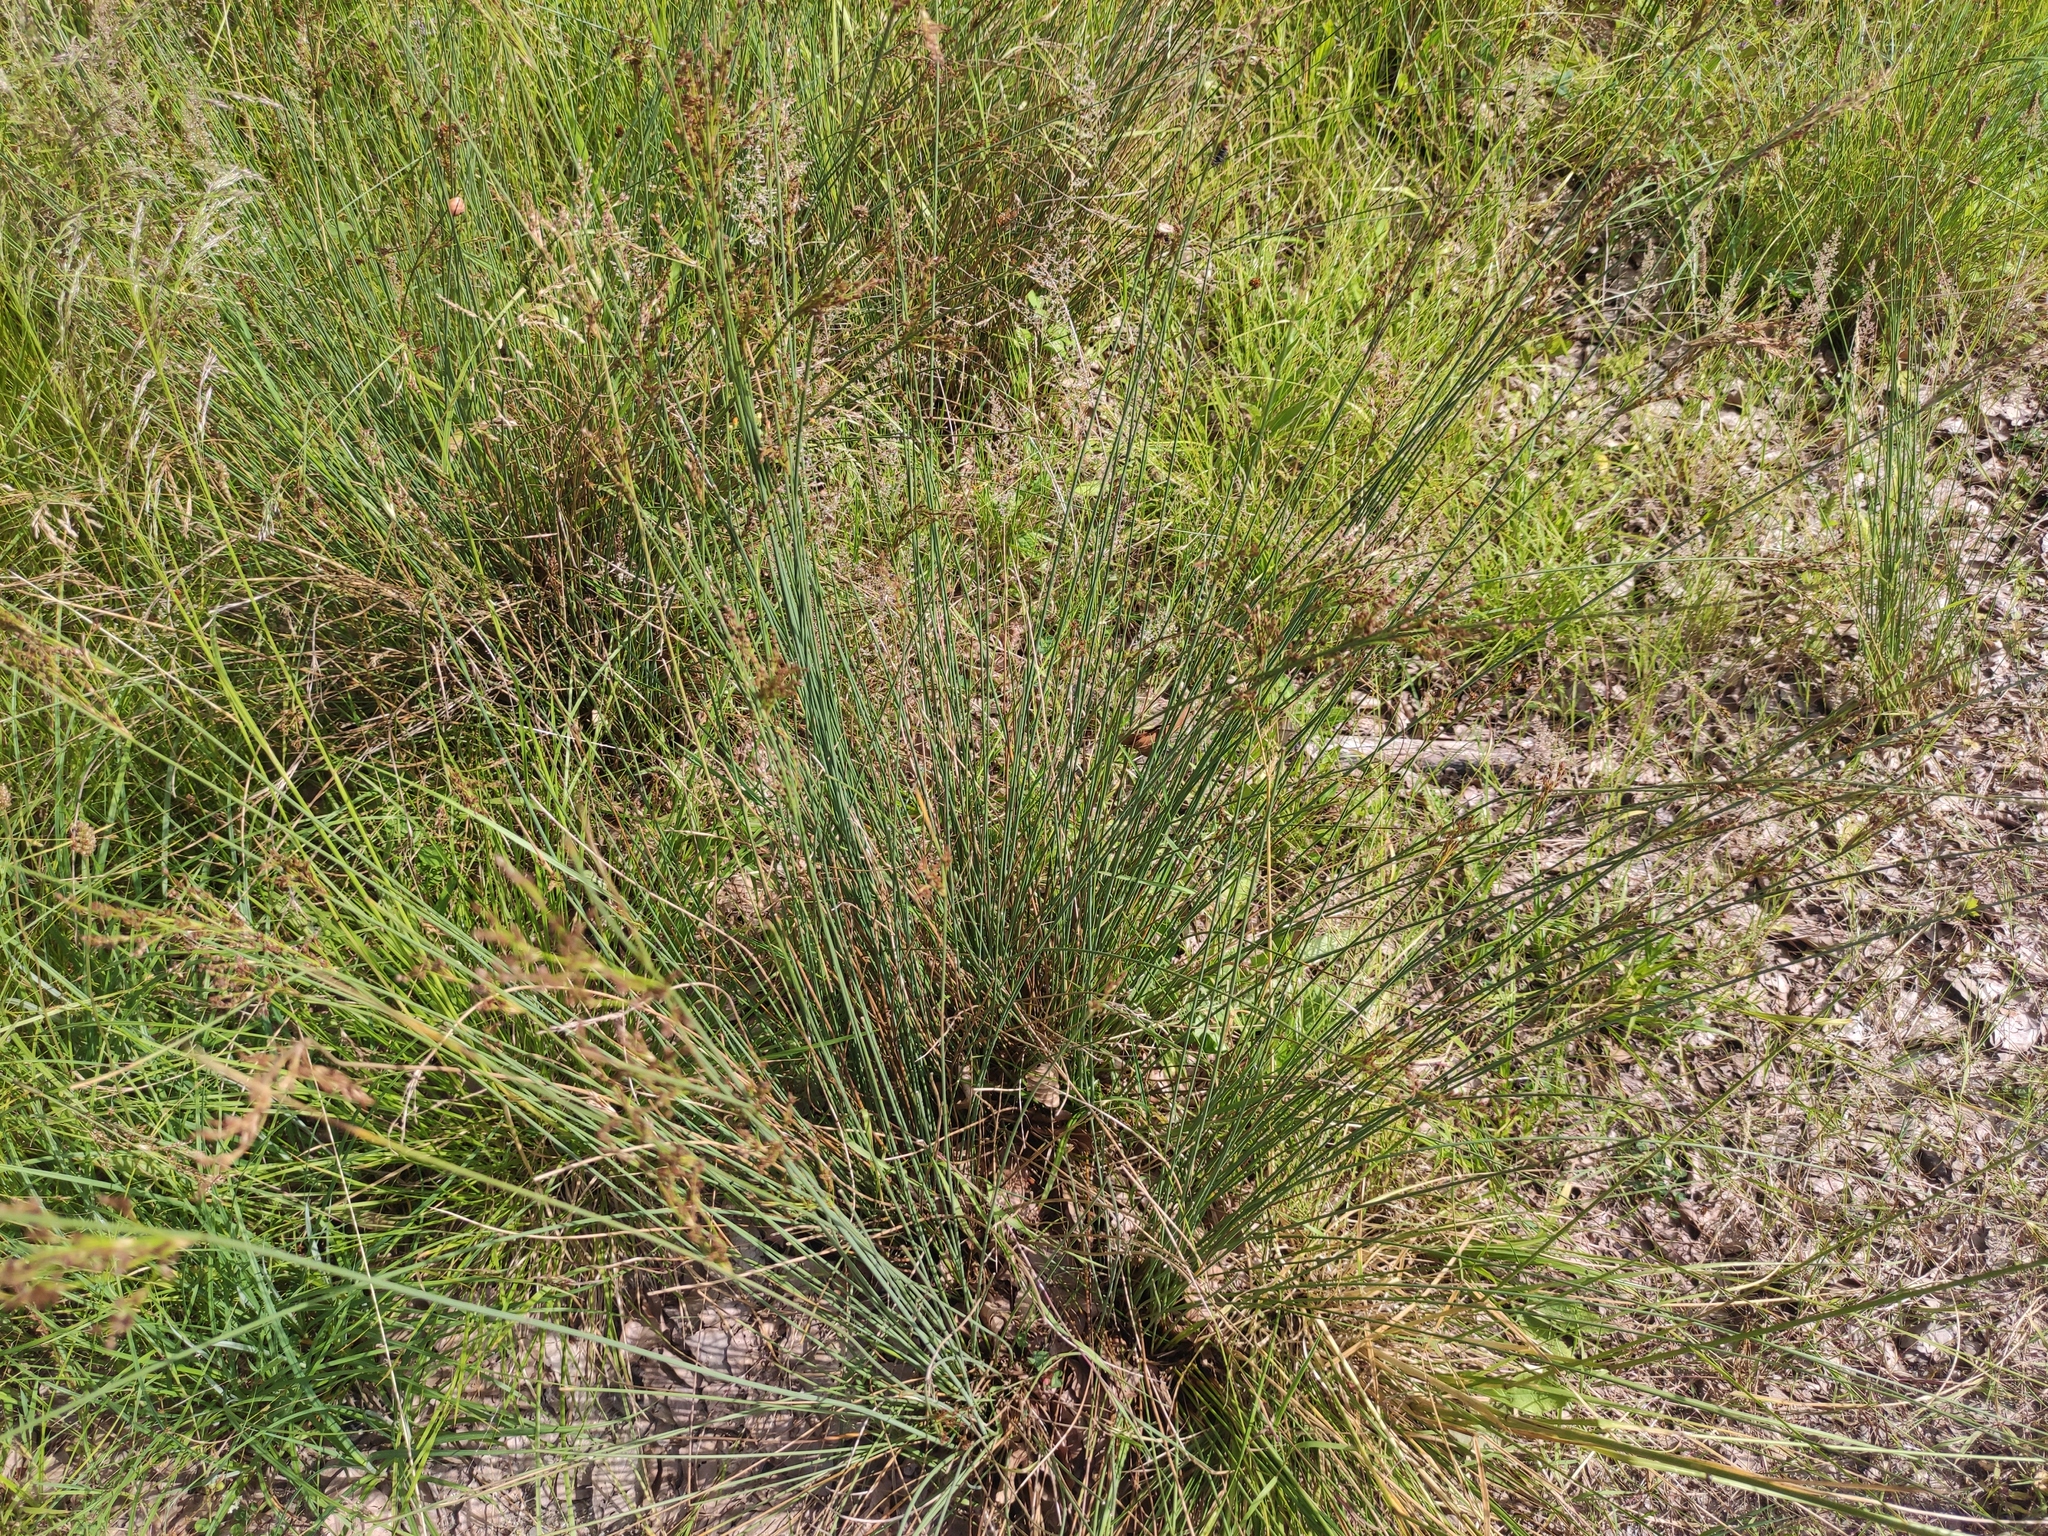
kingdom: Plantae
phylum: Tracheophyta
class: Liliopsida
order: Poales
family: Juncaceae
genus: Juncus
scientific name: Juncus inflexus
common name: Hard rush
